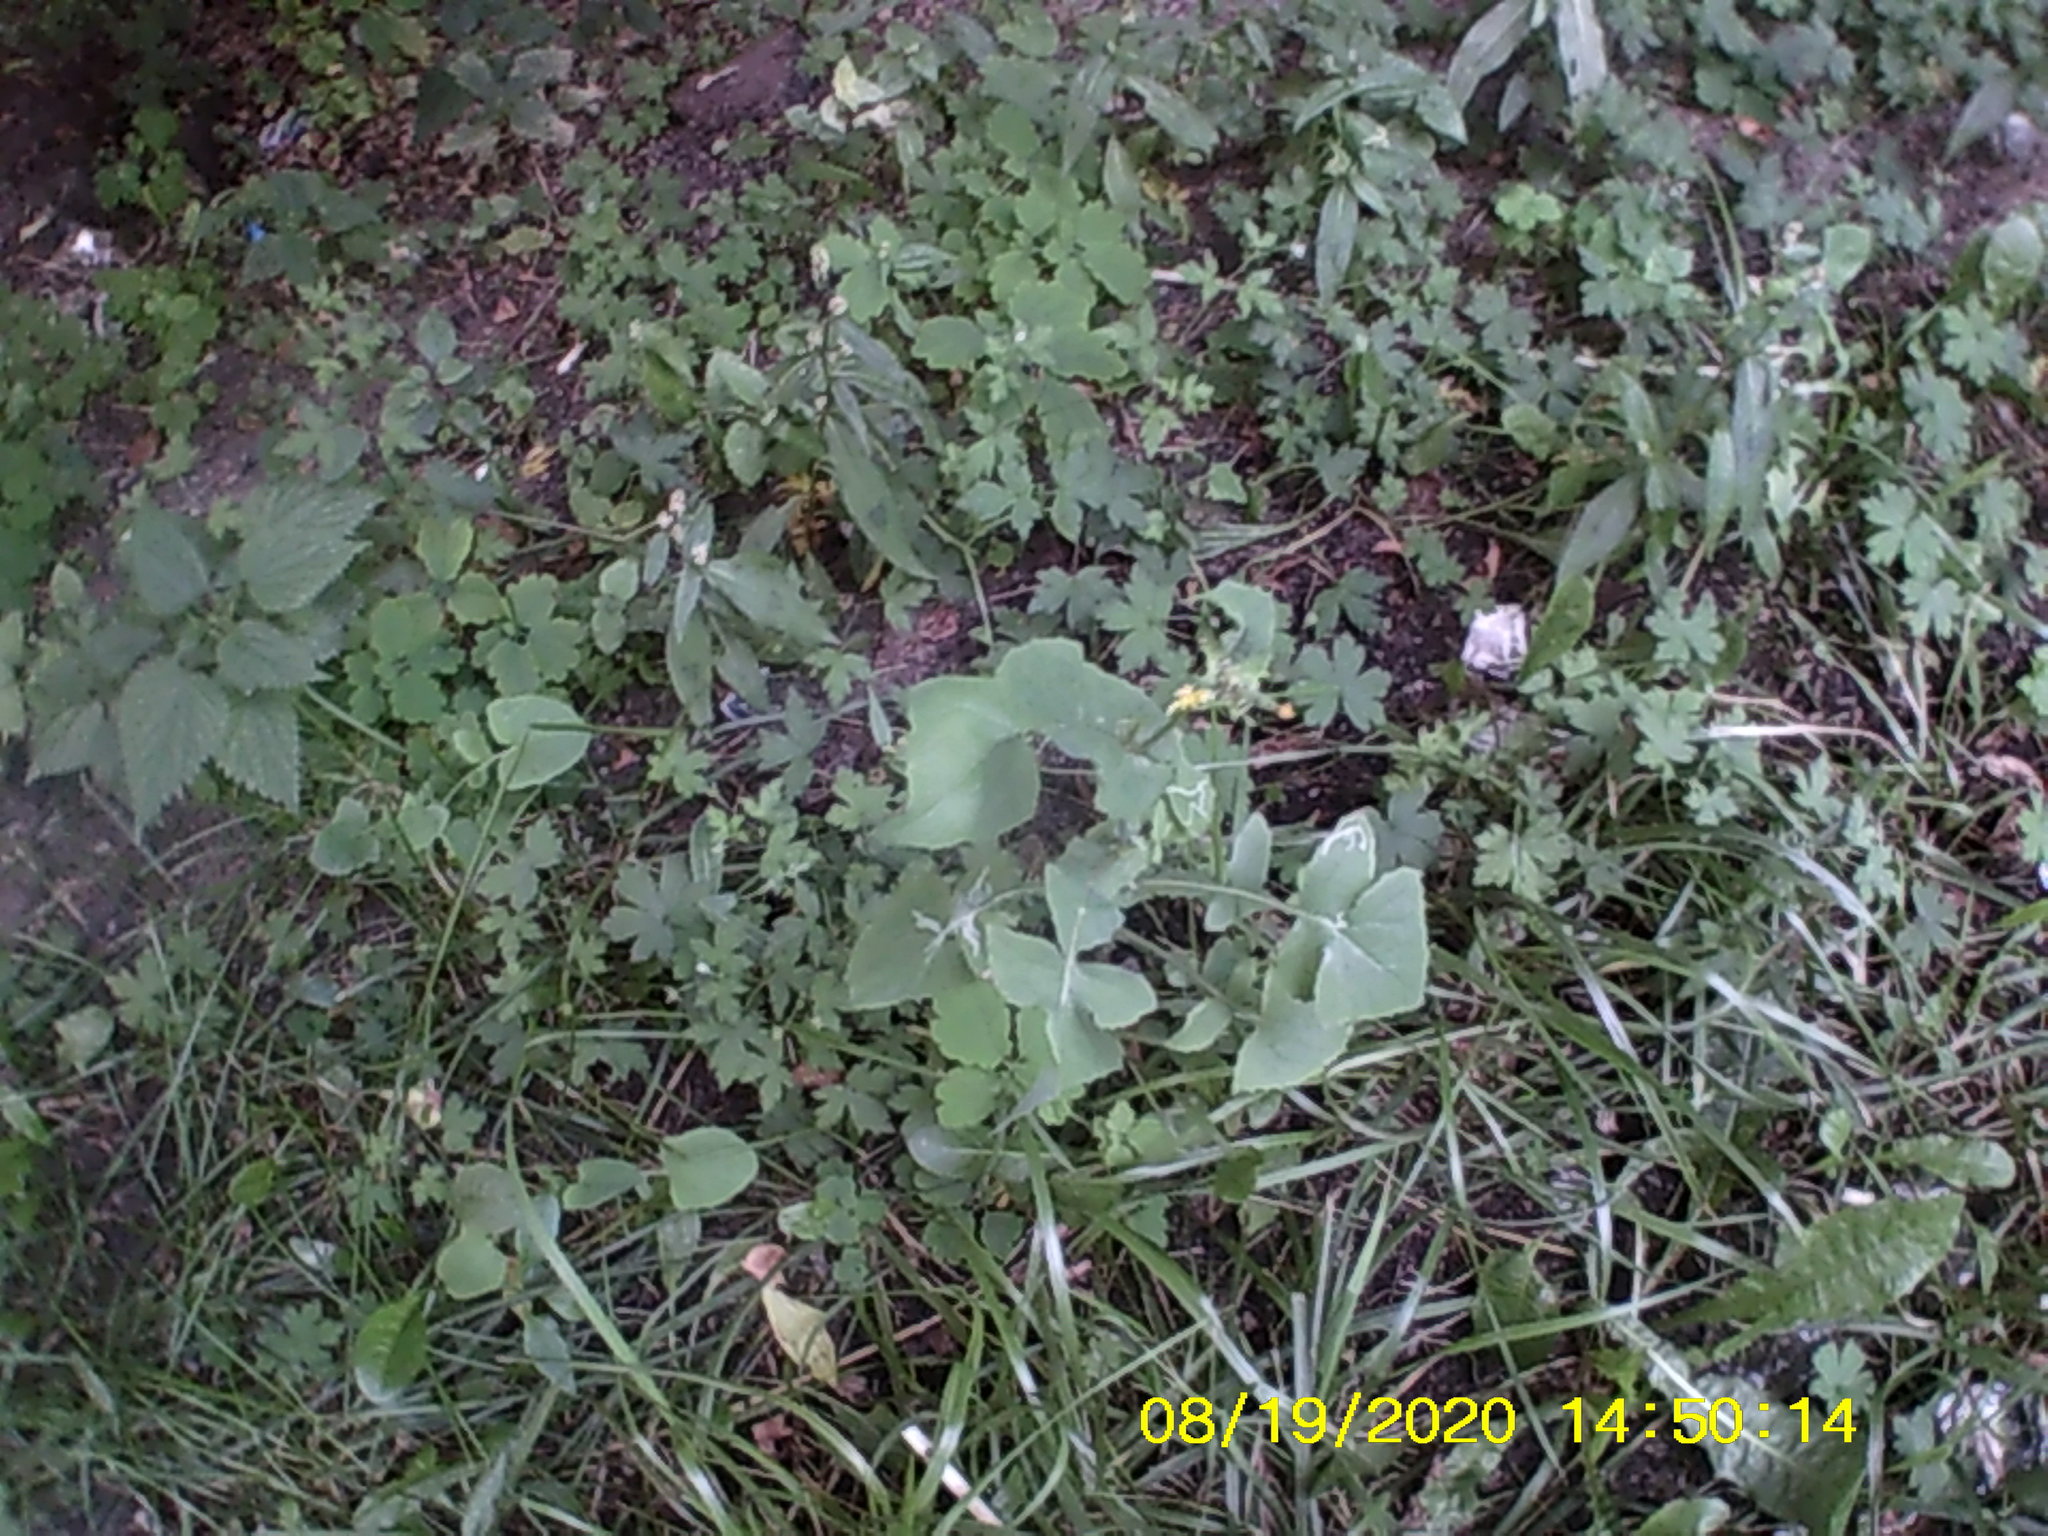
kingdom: Plantae
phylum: Tracheophyta
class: Magnoliopsida
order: Asterales
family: Asteraceae
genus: Sonchus
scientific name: Sonchus oleraceus
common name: Common sowthistle
